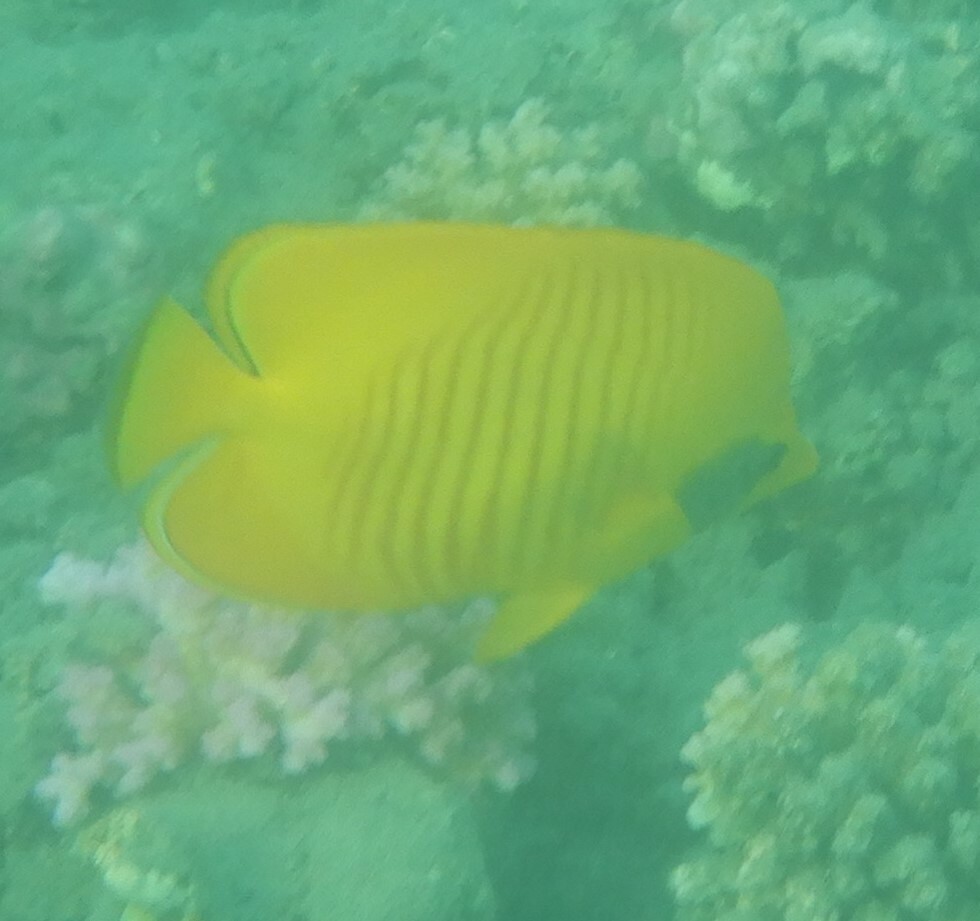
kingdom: Animalia
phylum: Chordata
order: Perciformes
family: Chaetodontidae
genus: Chaetodon
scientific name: Chaetodon semilarvatus
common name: Golden butterflyfish
